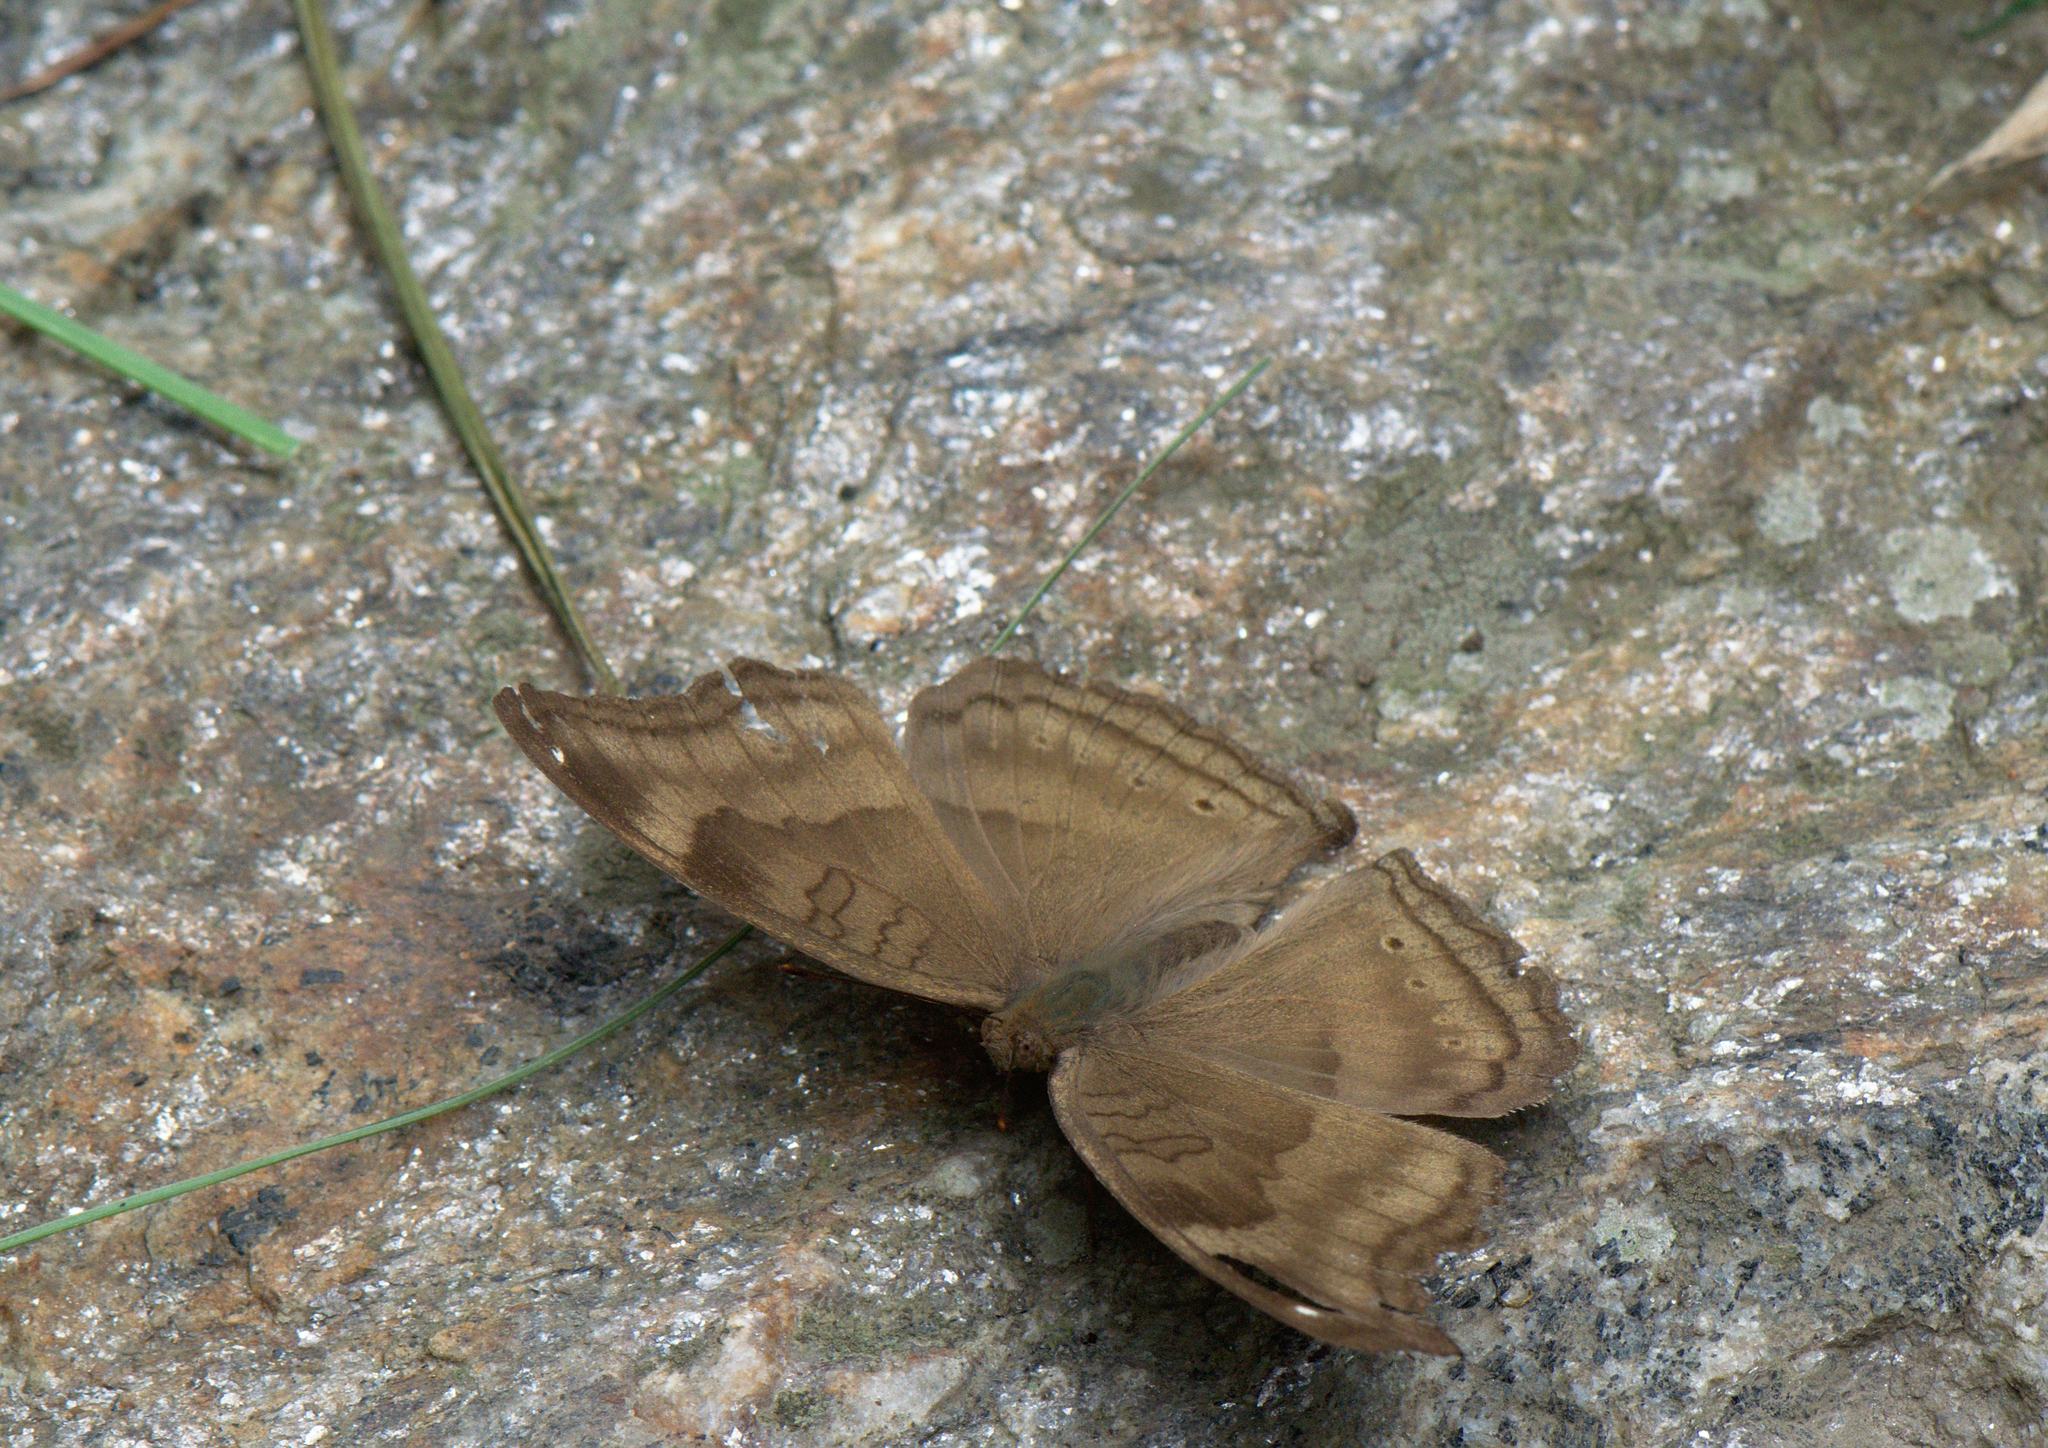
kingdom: Animalia
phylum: Arthropoda
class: Insecta
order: Lepidoptera
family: Nymphalidae
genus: Junonia
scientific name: Junonia iphita
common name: Chocolate pansy
